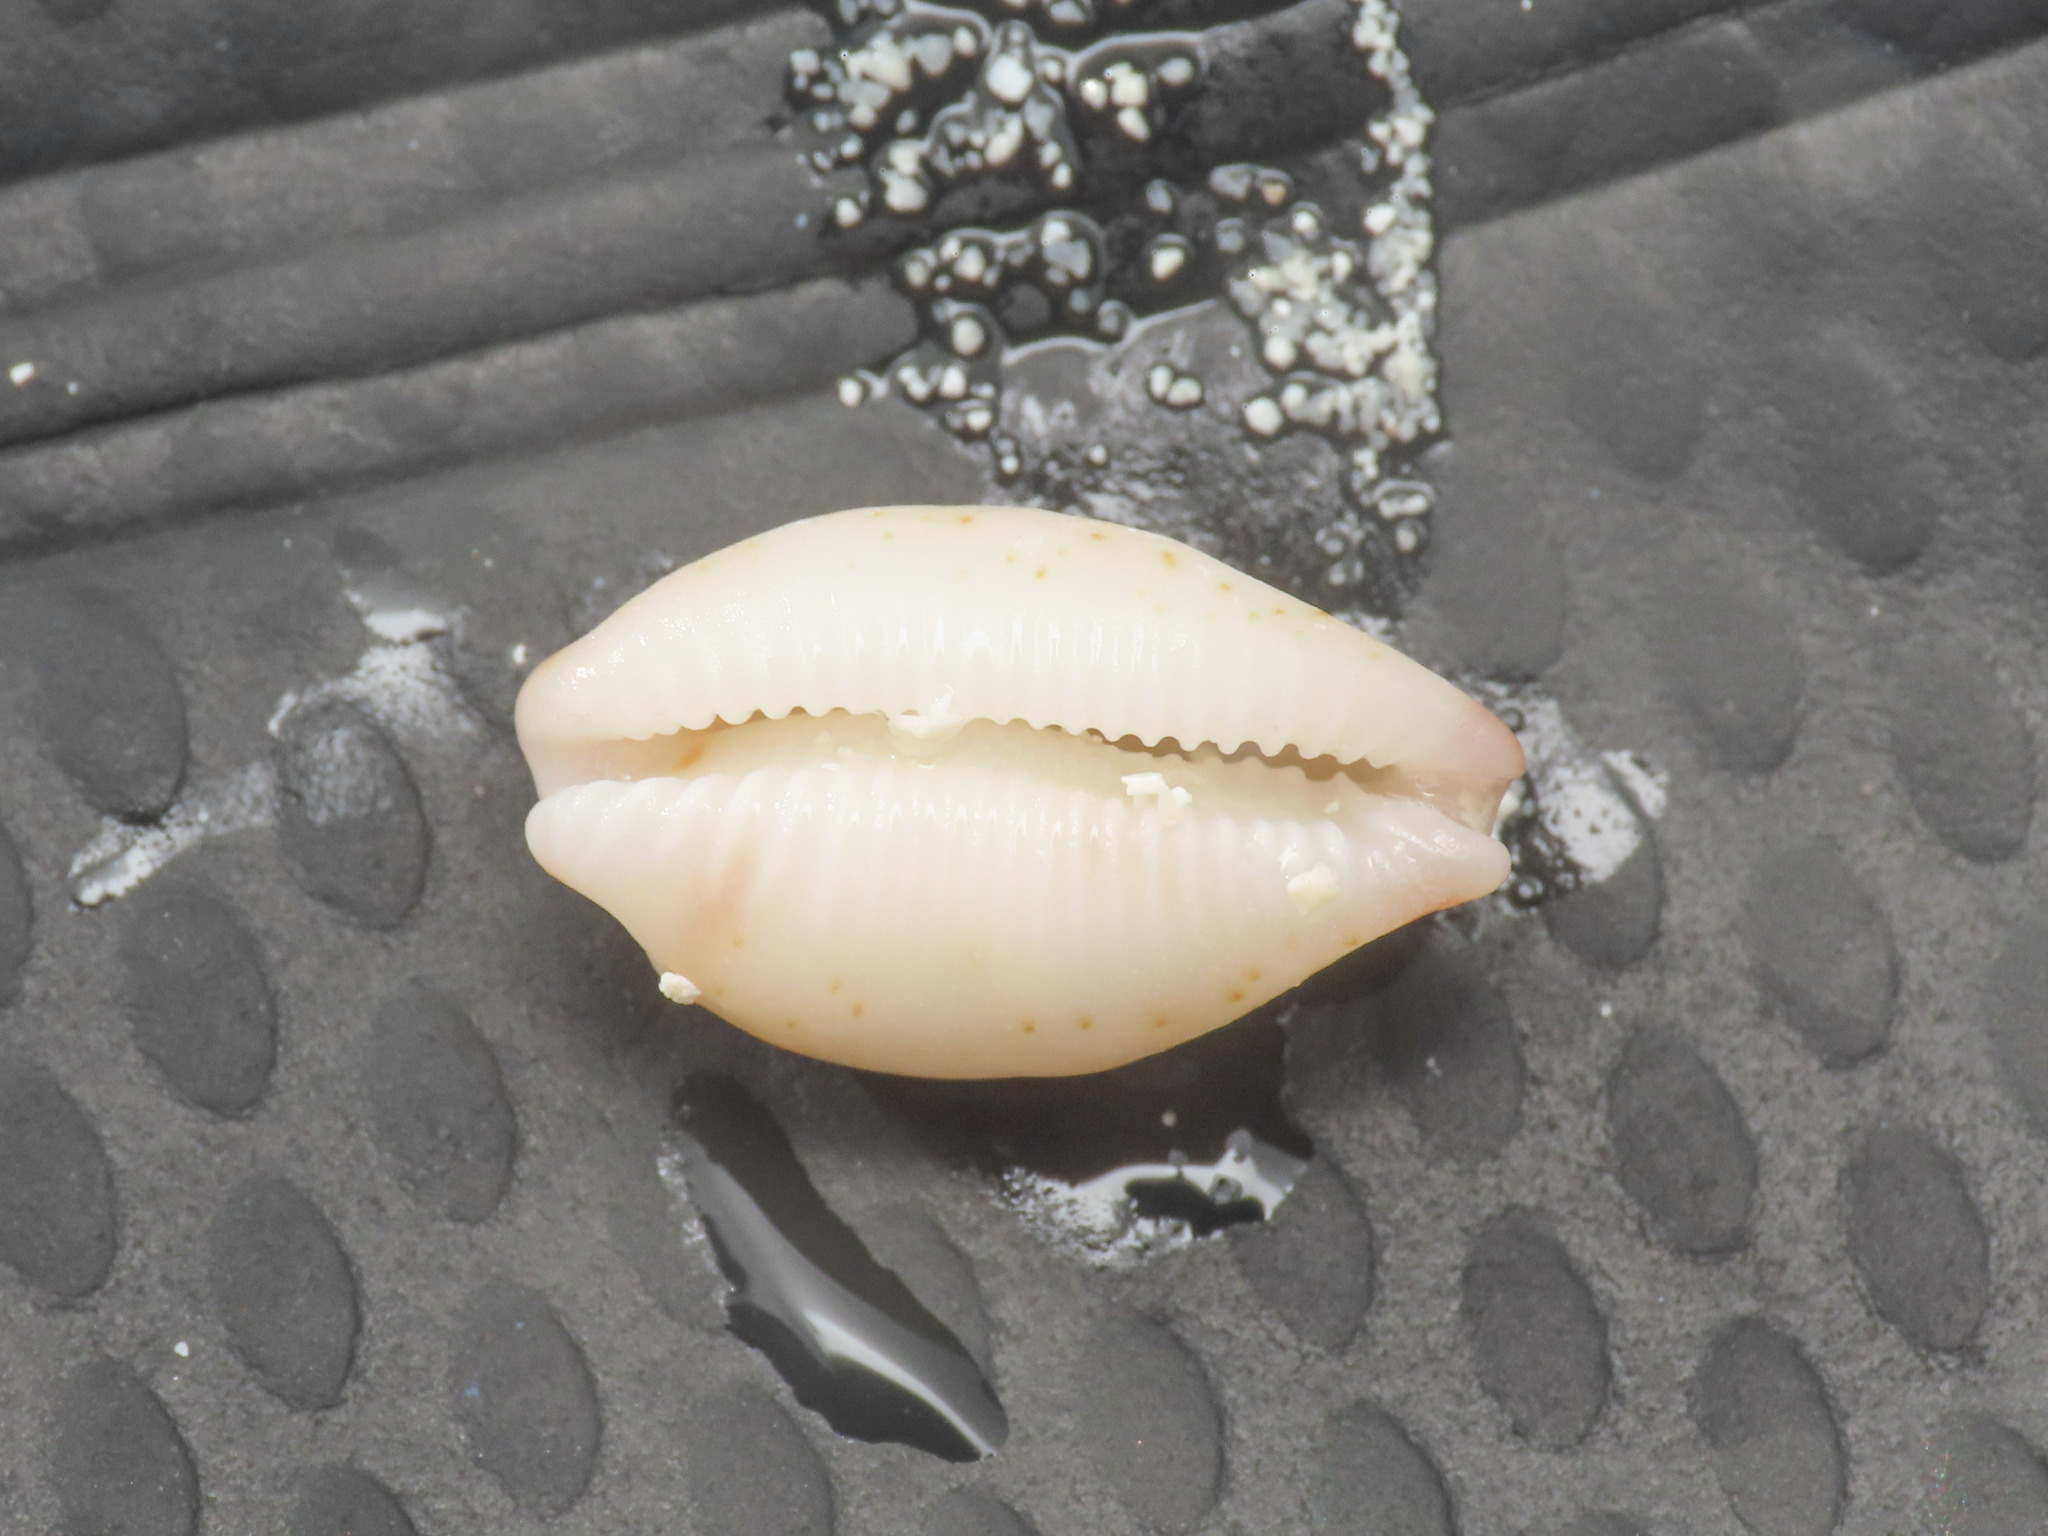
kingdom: Animalia
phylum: Mollusca
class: Gastropoda
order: Littorinimorpha
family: Cypraeidae
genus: Bistolida
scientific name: Bistolida ursellus
